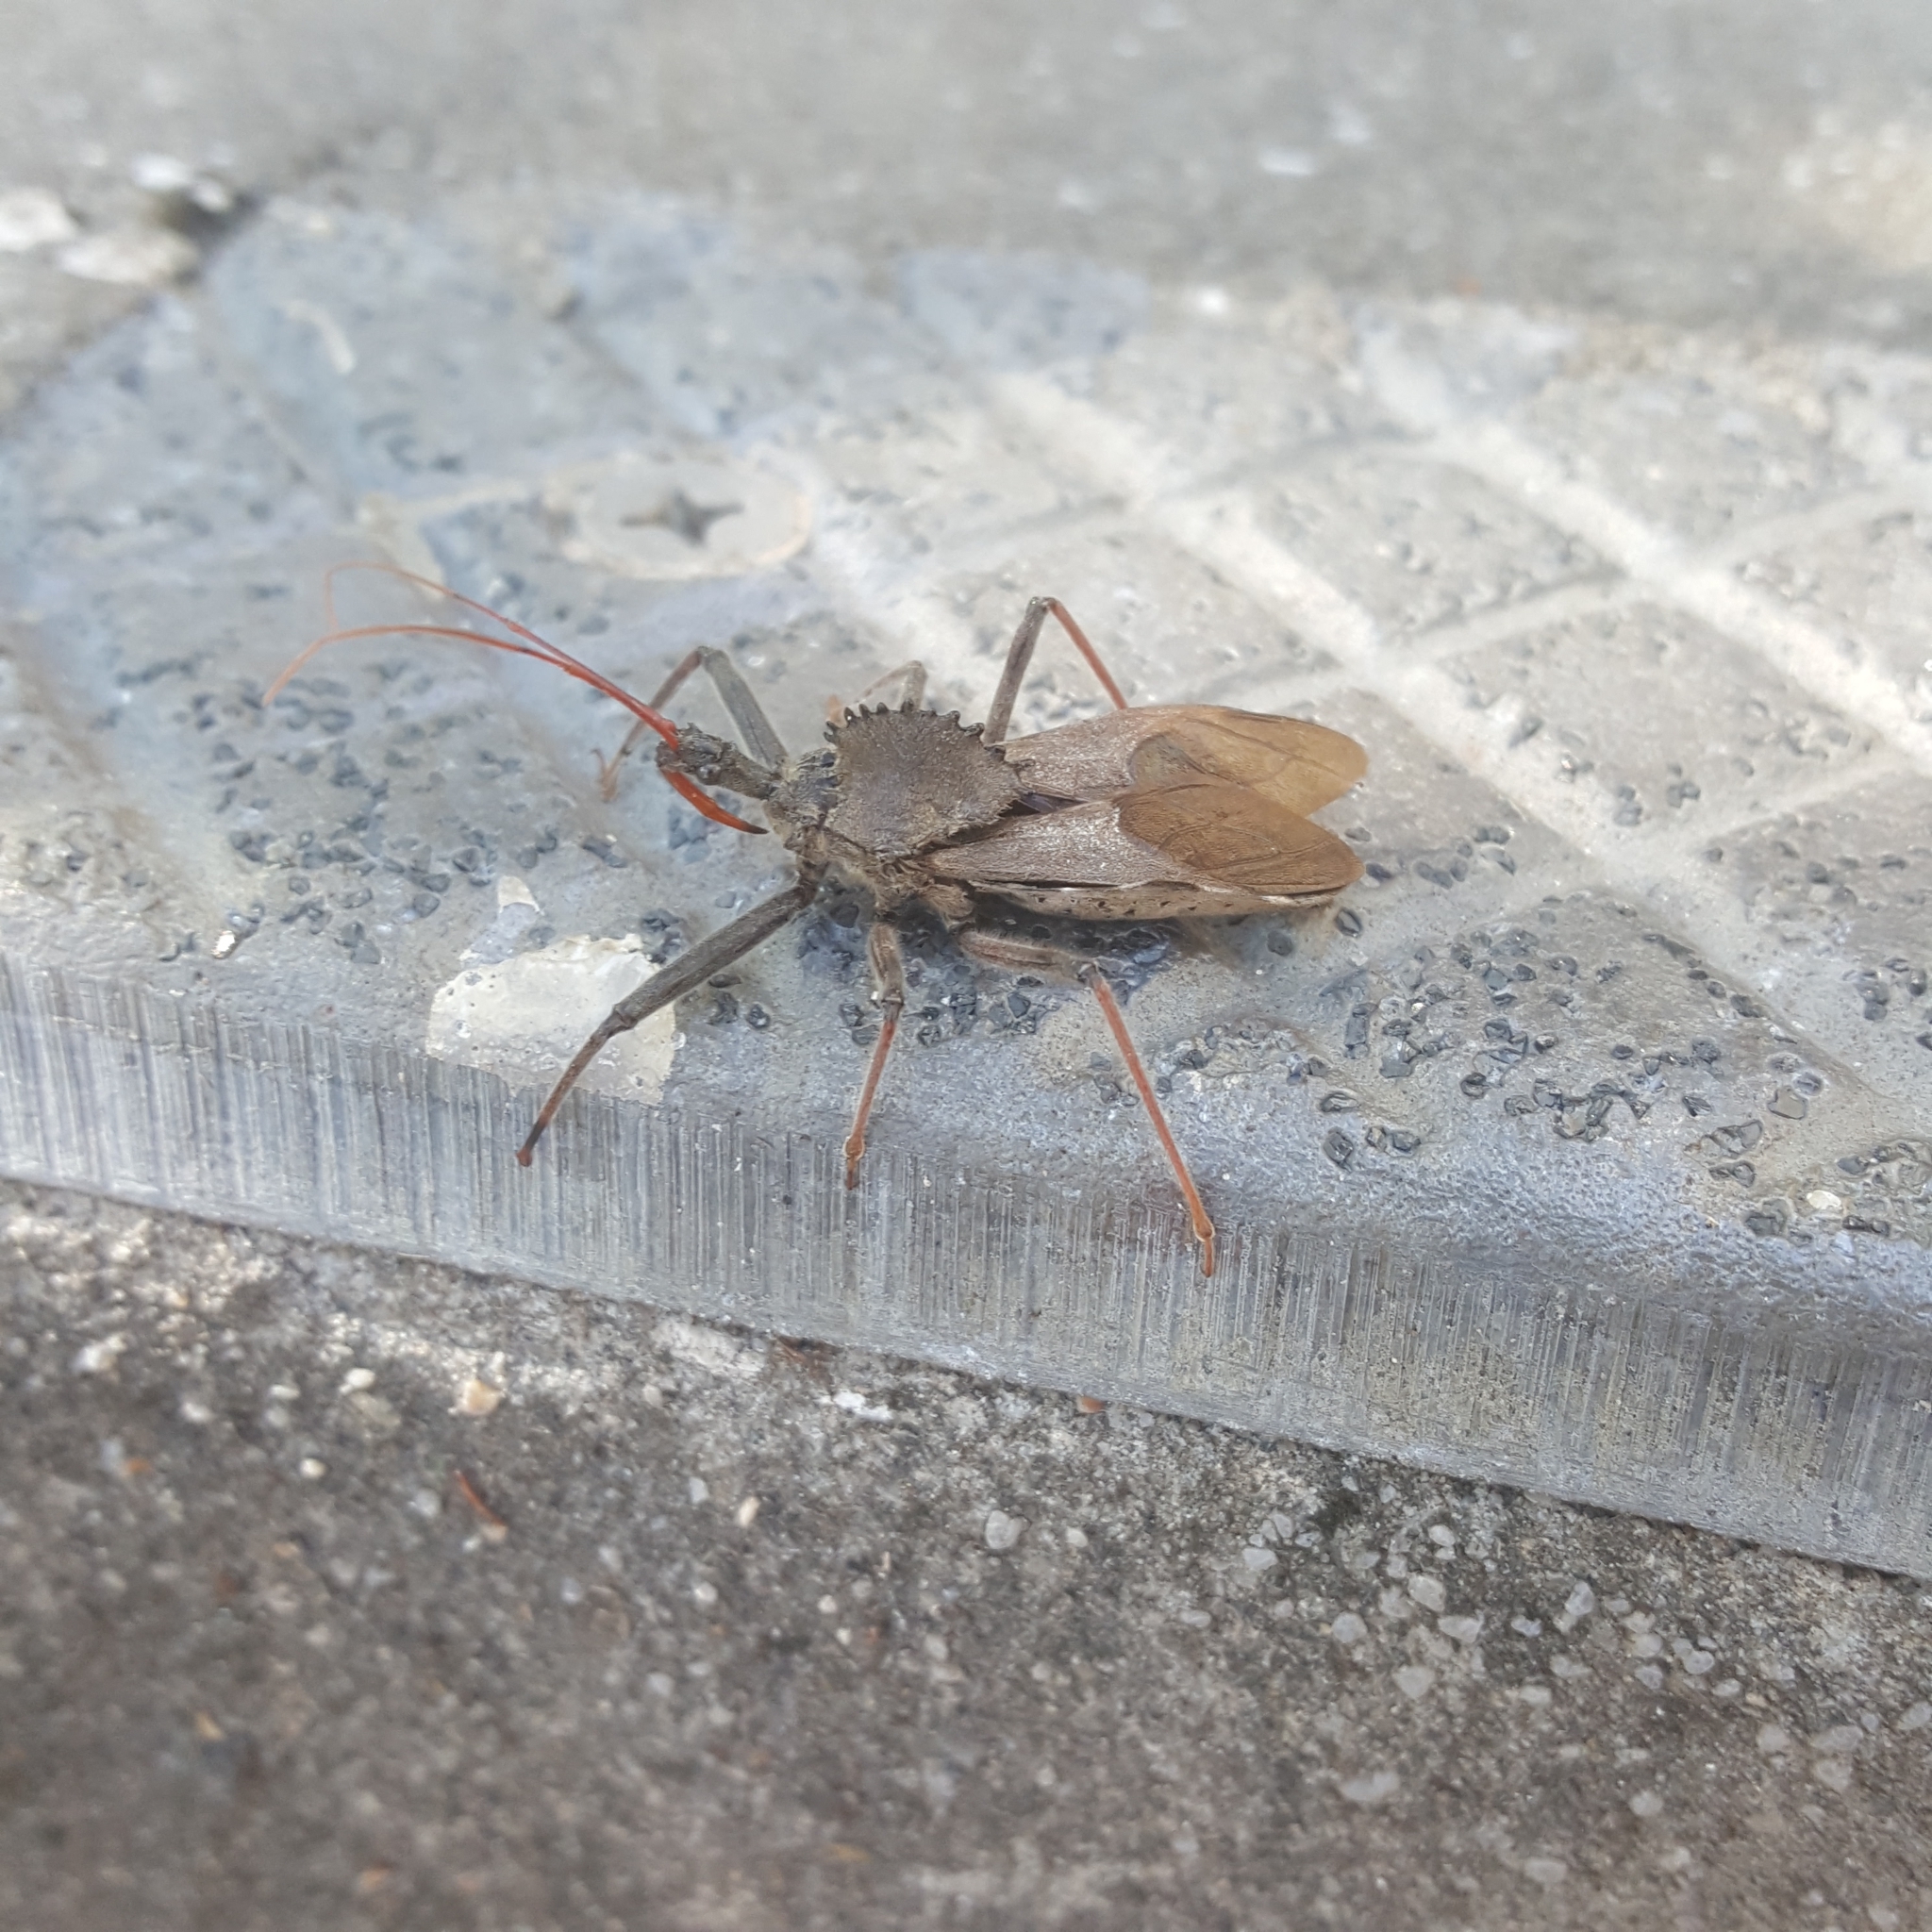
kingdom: Animalia
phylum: Arthropoda
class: Insecta
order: Hemiptera
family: Reduviidae
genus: Arilus
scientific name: Arilus cristatus
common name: North american wheel bug
